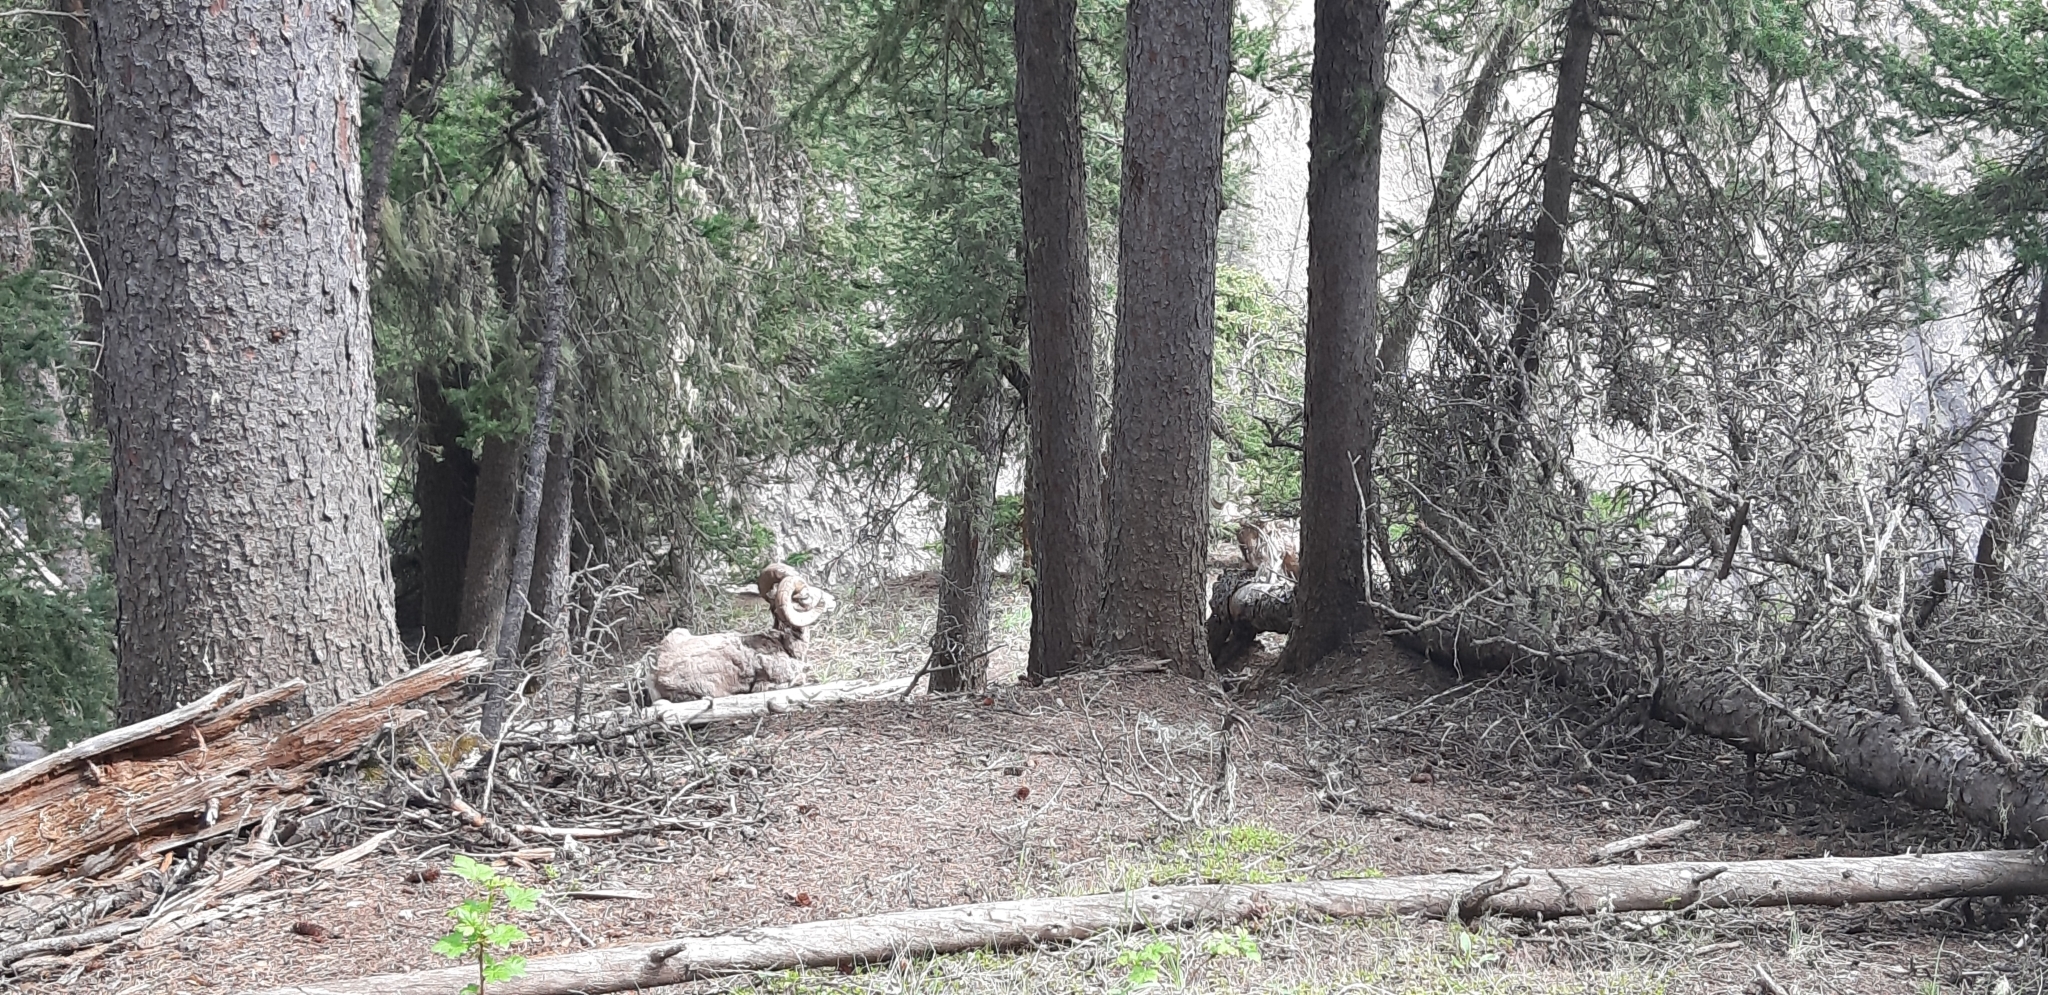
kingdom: Animalia
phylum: Chordata
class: Mammalia
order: Artiodactyla
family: Bovidae
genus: Ovis
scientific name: Ovis canadensis
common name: Bighorn sheep
